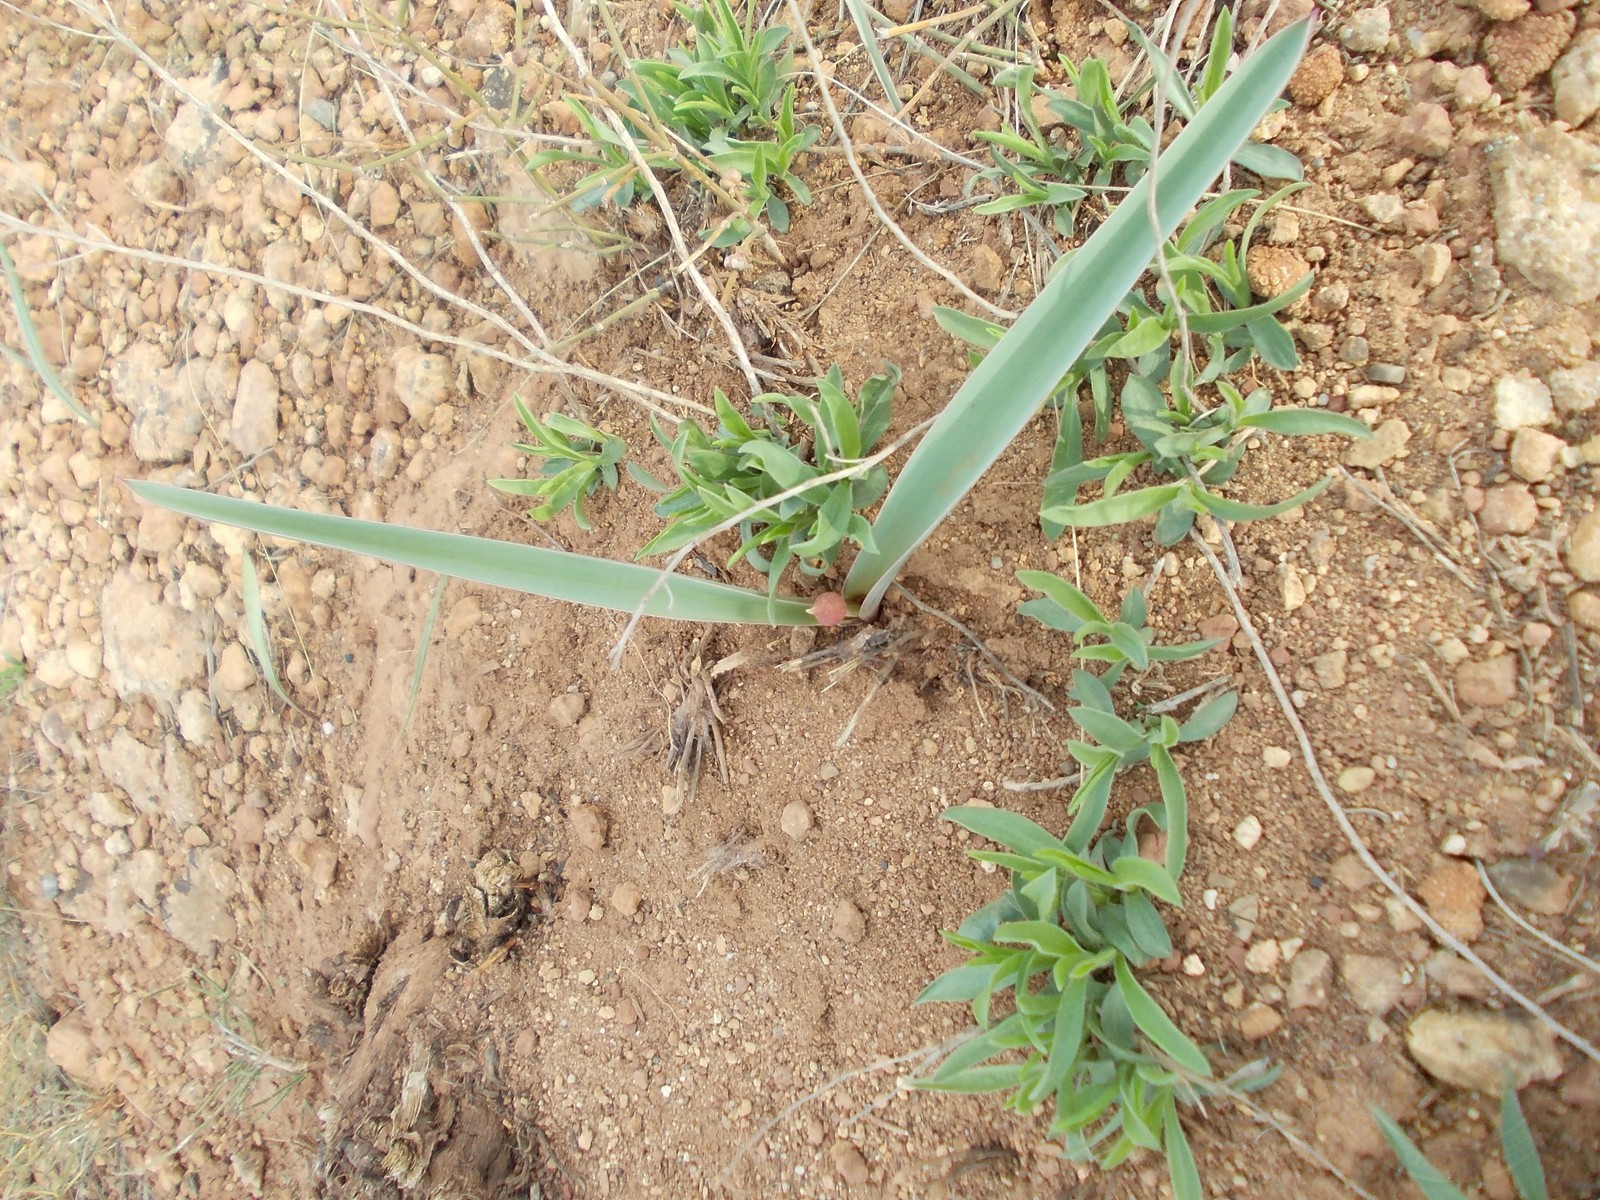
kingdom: Plantae
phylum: Tracheophyta
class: Liliopsida
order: Asparagales
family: Amaryllidaceae
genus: Allium
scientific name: Allium tulipifolium
